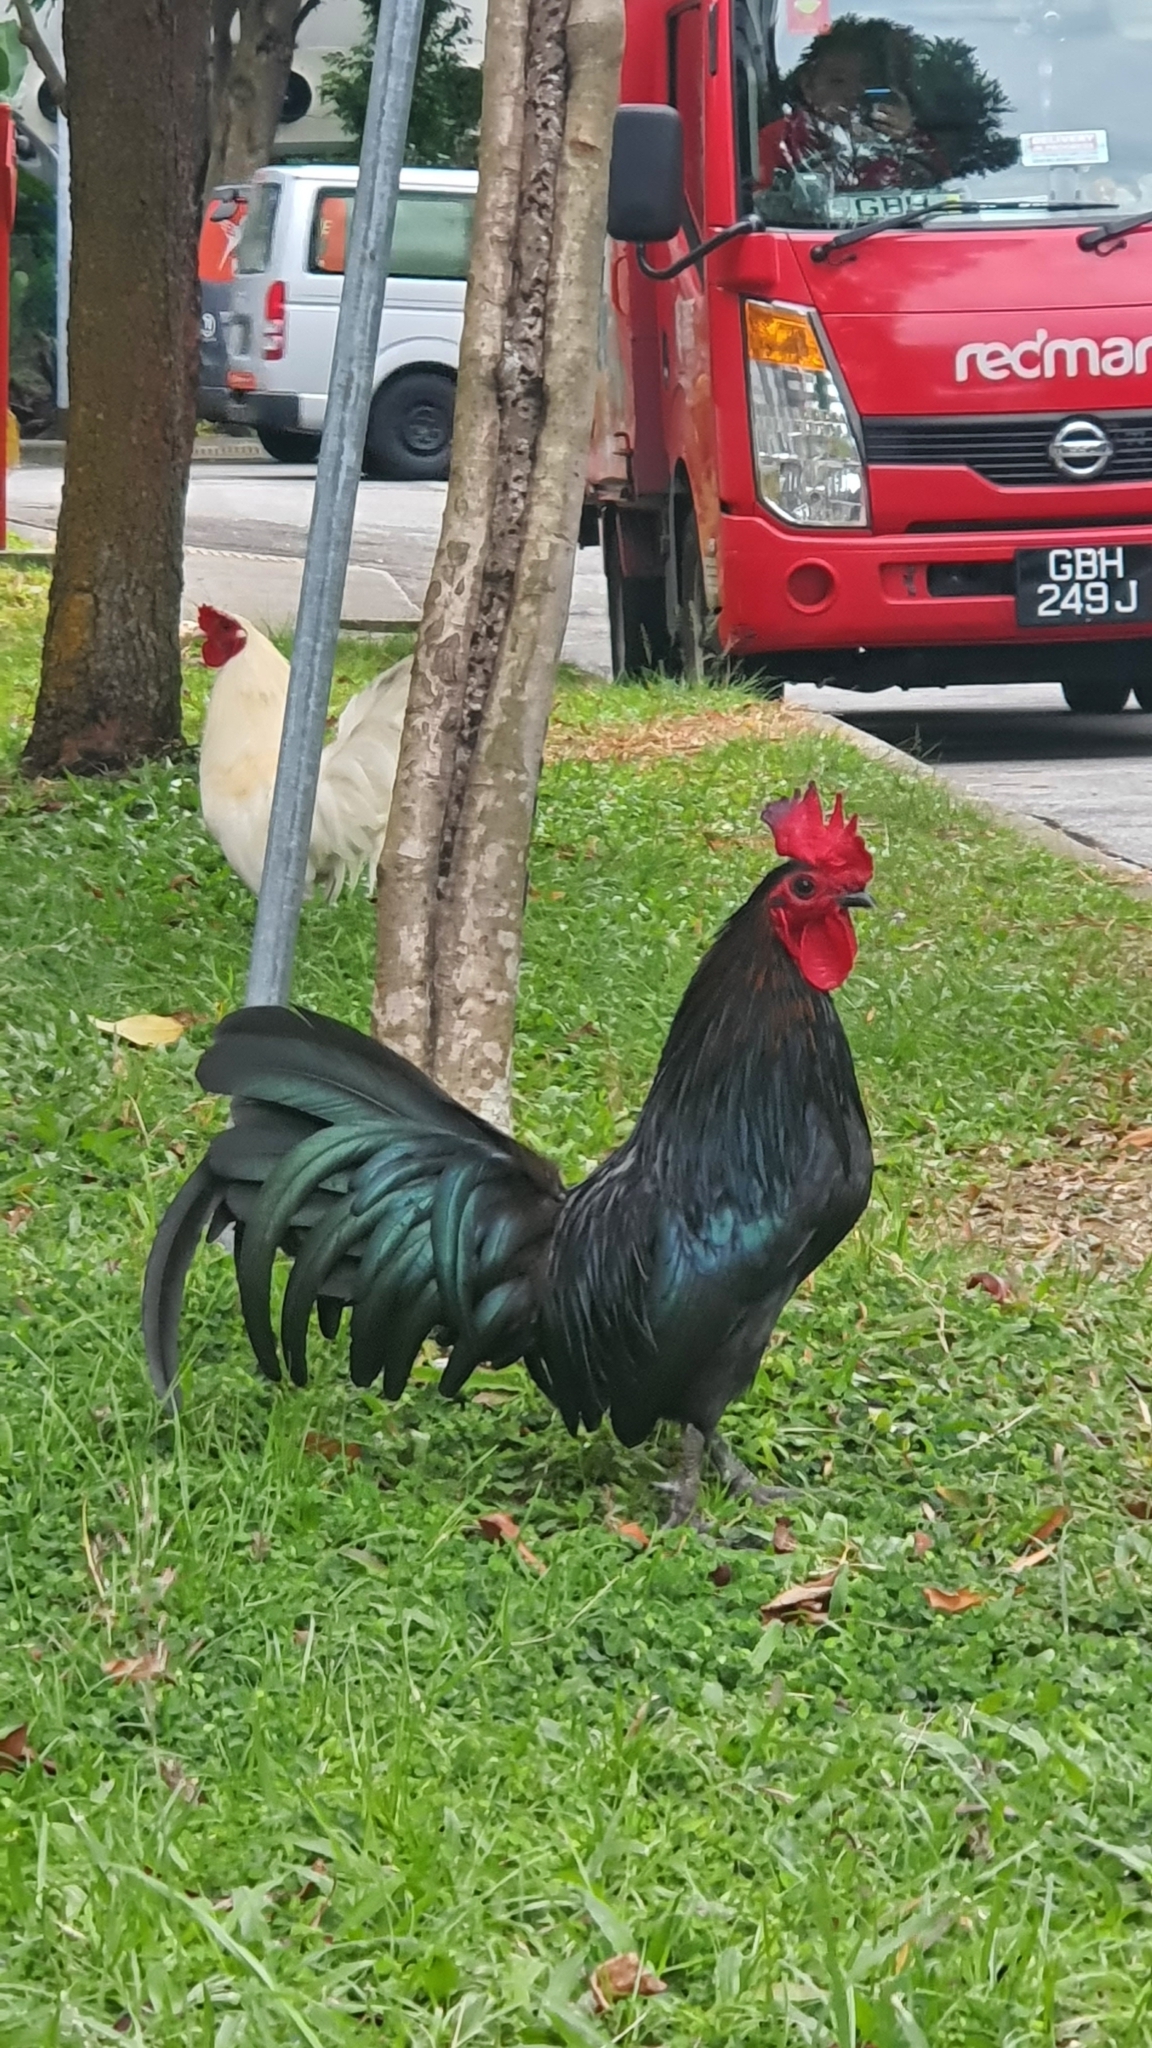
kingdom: Animalia
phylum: Chordata
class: Aves
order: Galliformes
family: Phasianidae
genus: Gallus
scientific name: Gallus gallus
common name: Red junglefowl
